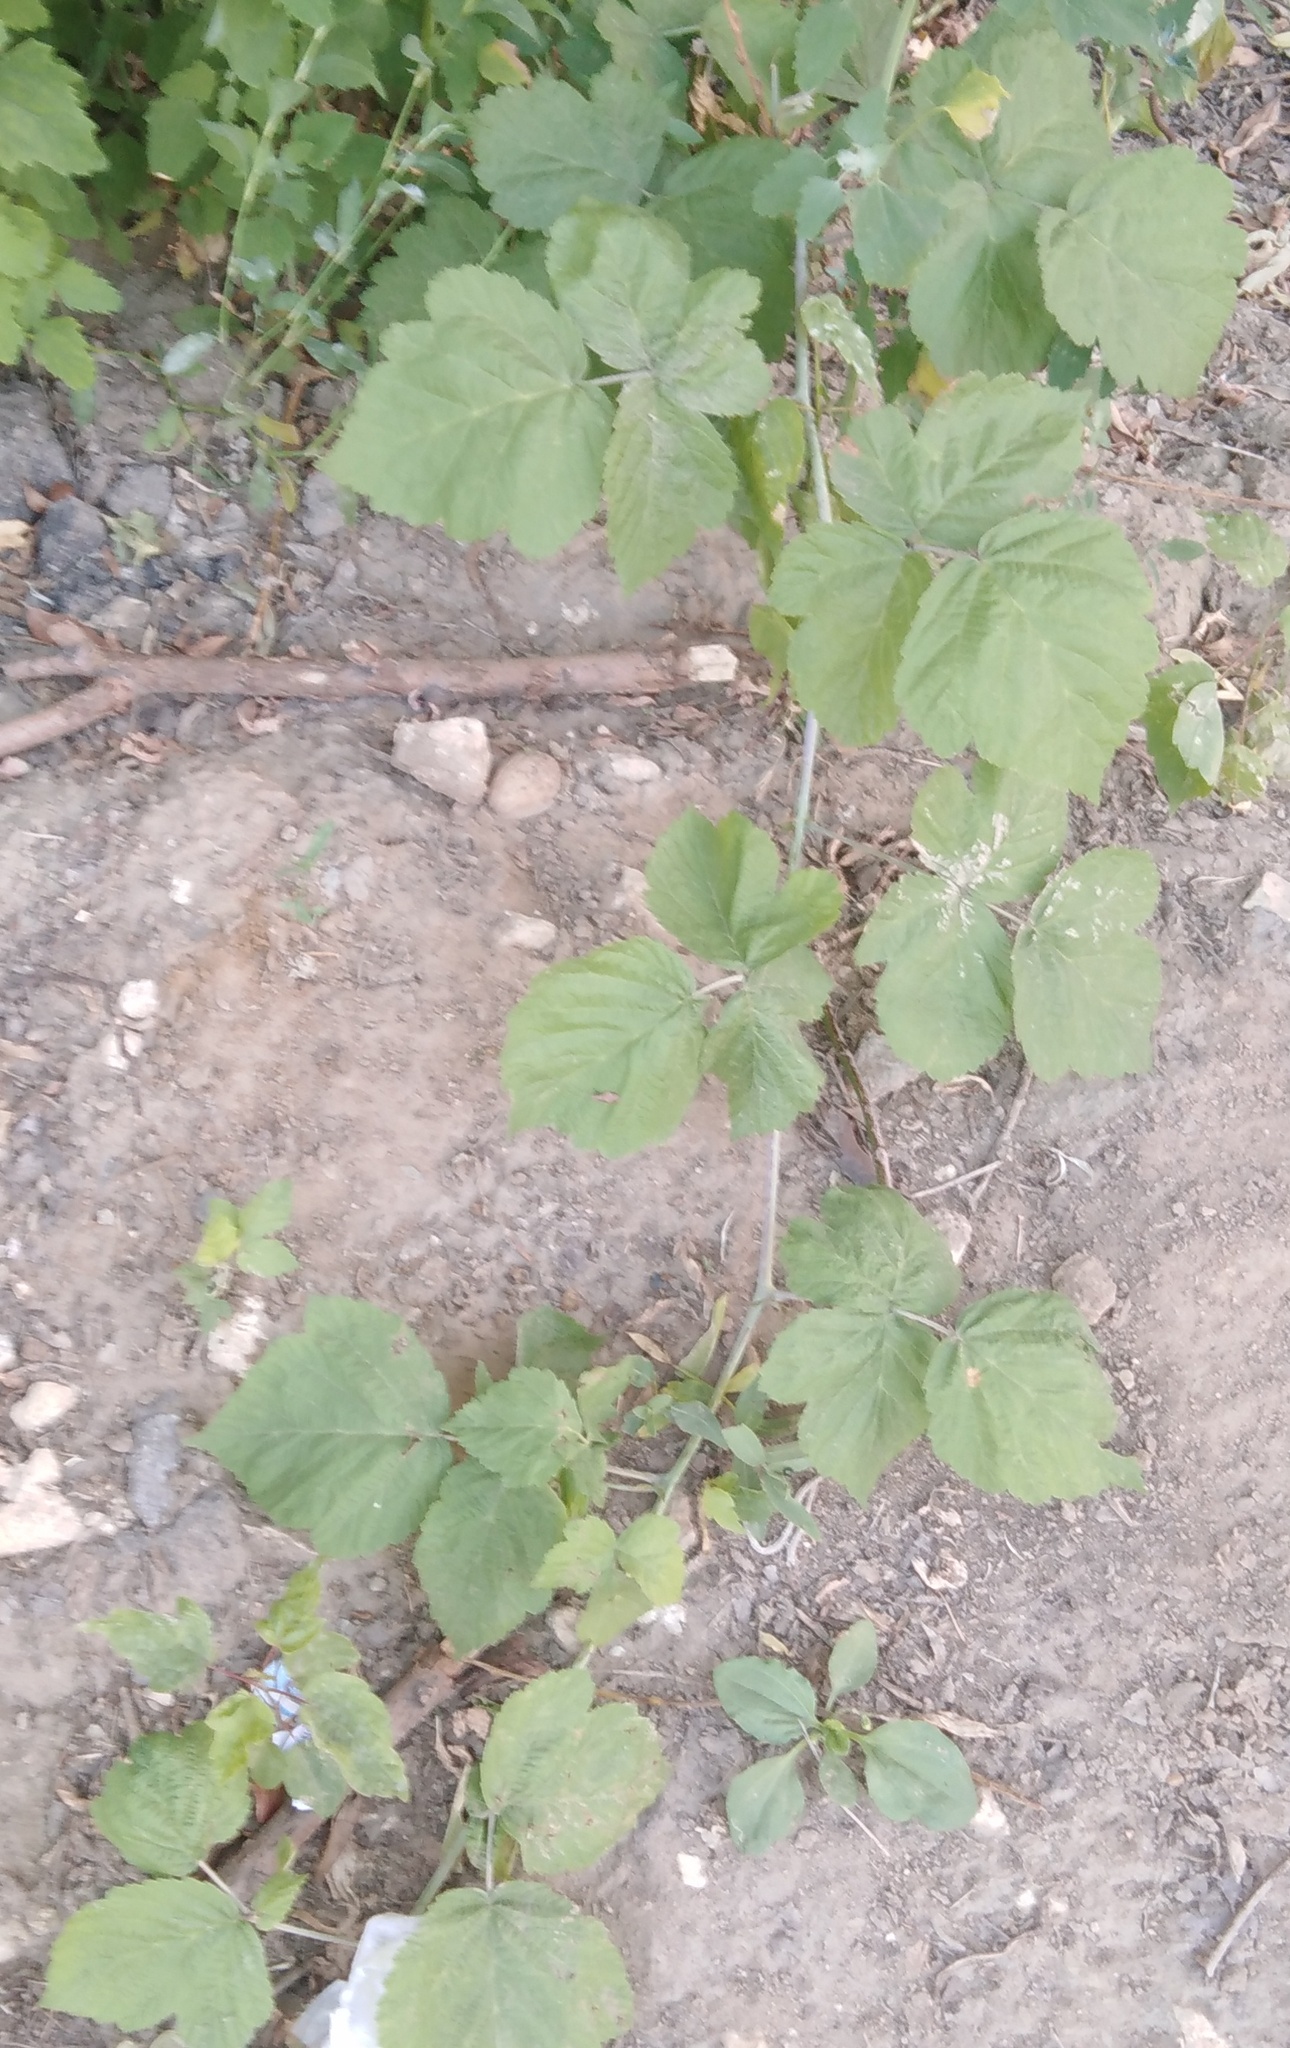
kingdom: Plantae
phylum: Tracheophyta
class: Magnoliopsida
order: Rosales
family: Rosaceae
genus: Rubus
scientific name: Rubus idaeus
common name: Raspberry
